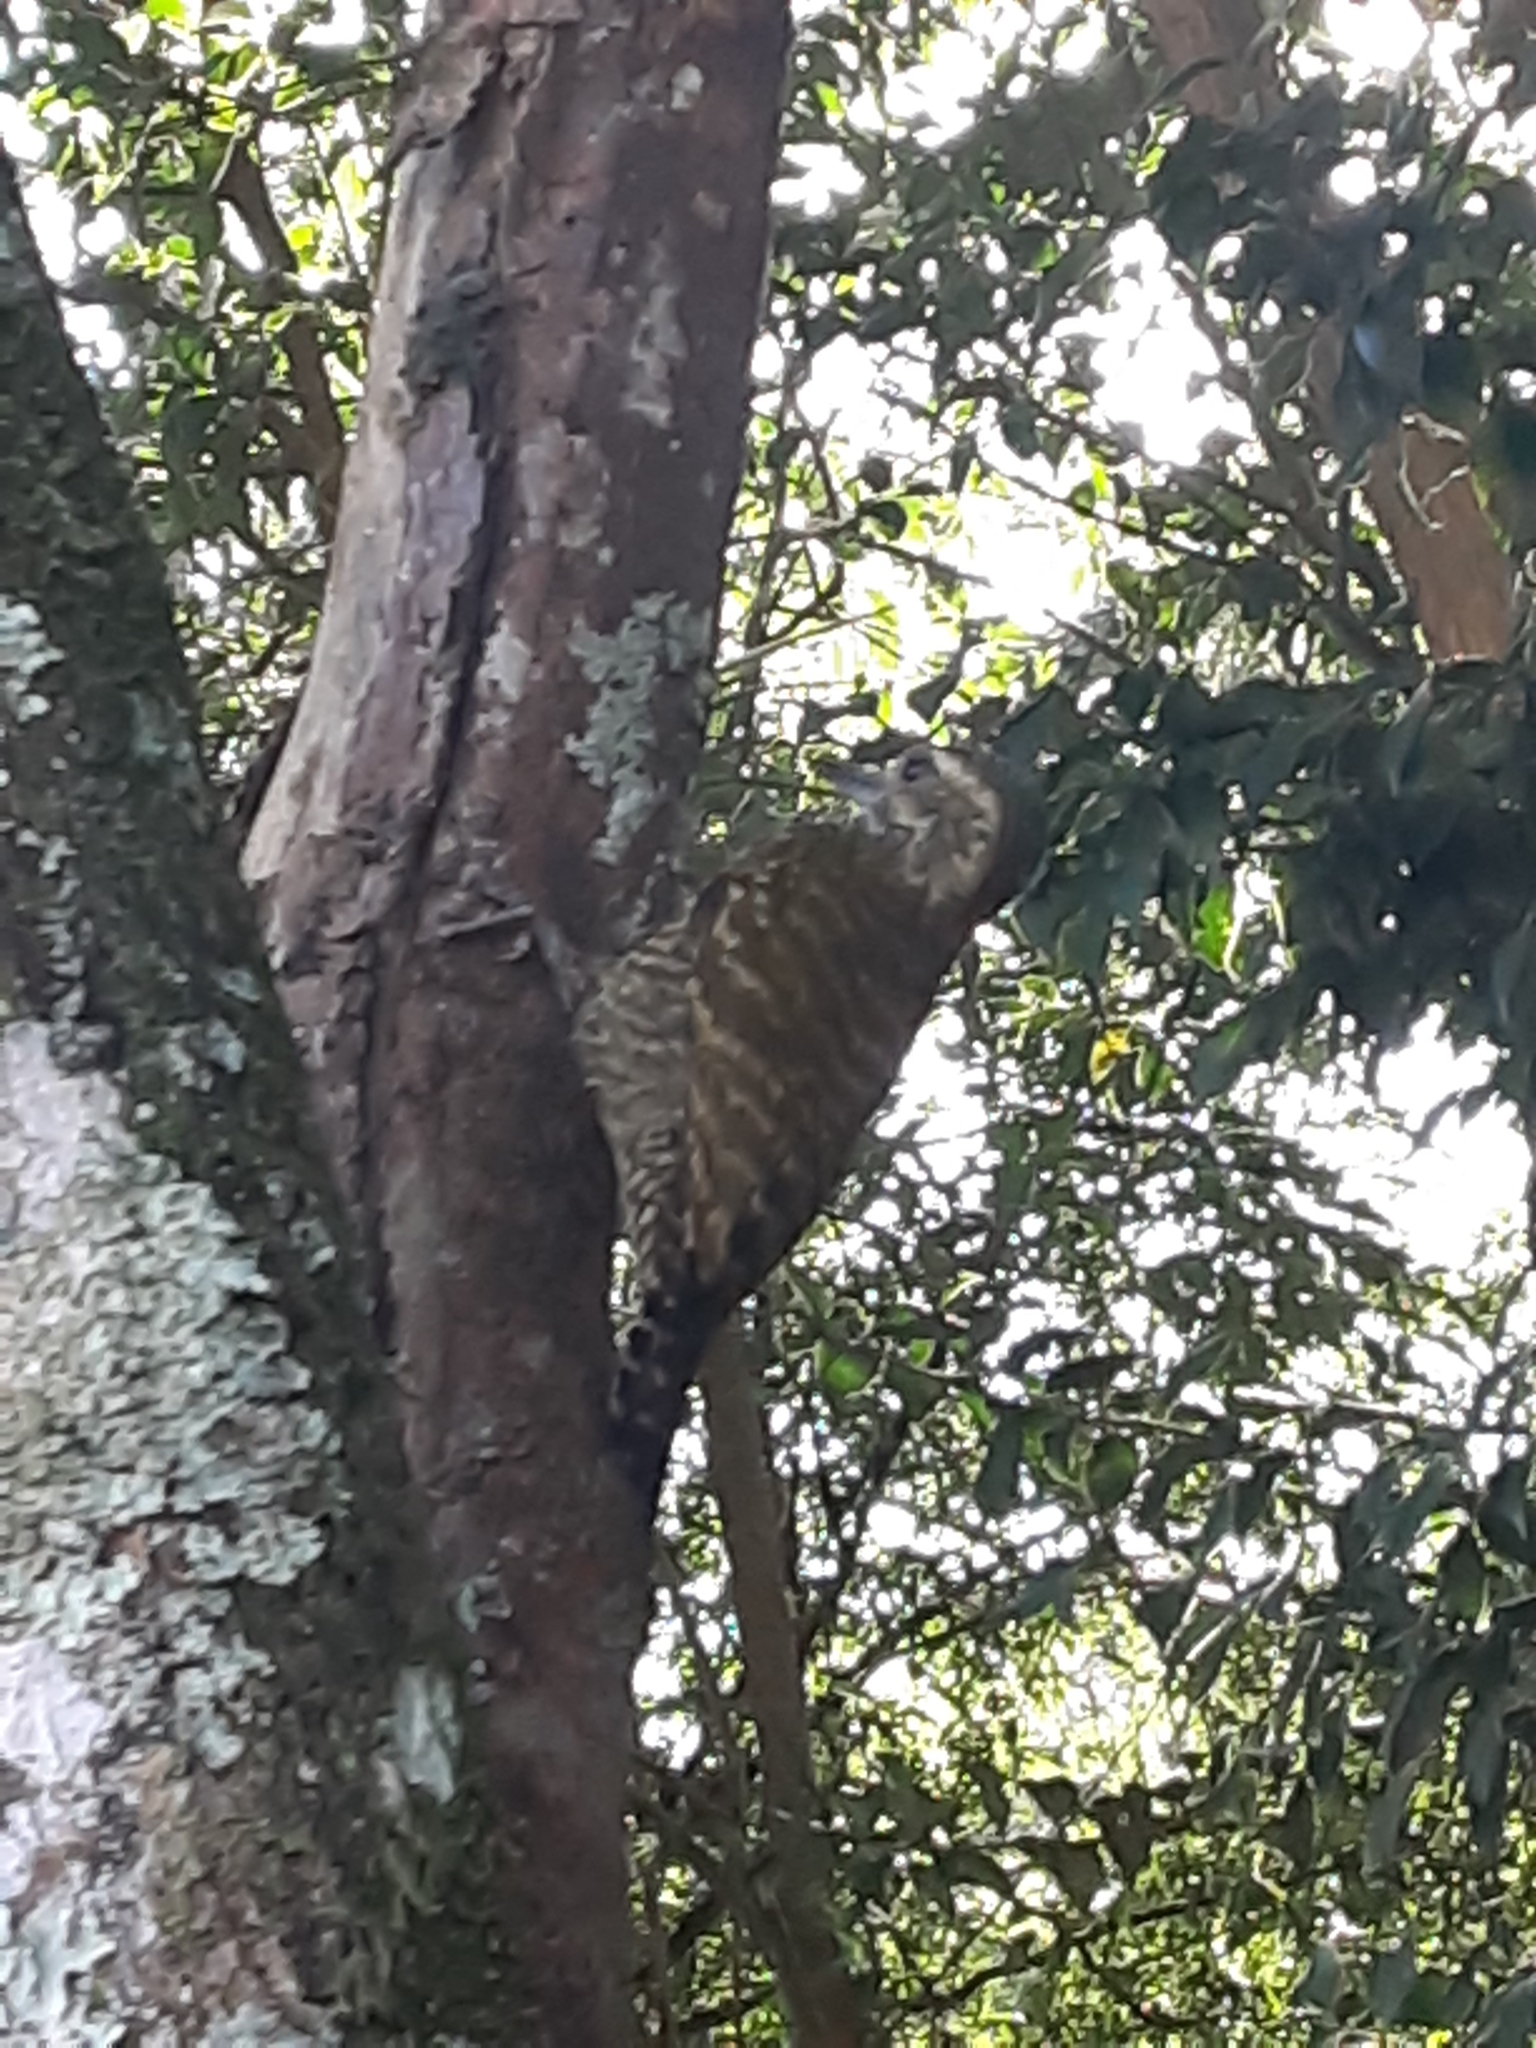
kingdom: Animalia
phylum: Chordata
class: Aves
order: Piciformes
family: Picidae
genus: Veniliornis
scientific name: Veniliornis spilogaster
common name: White-spotted woodpecker
